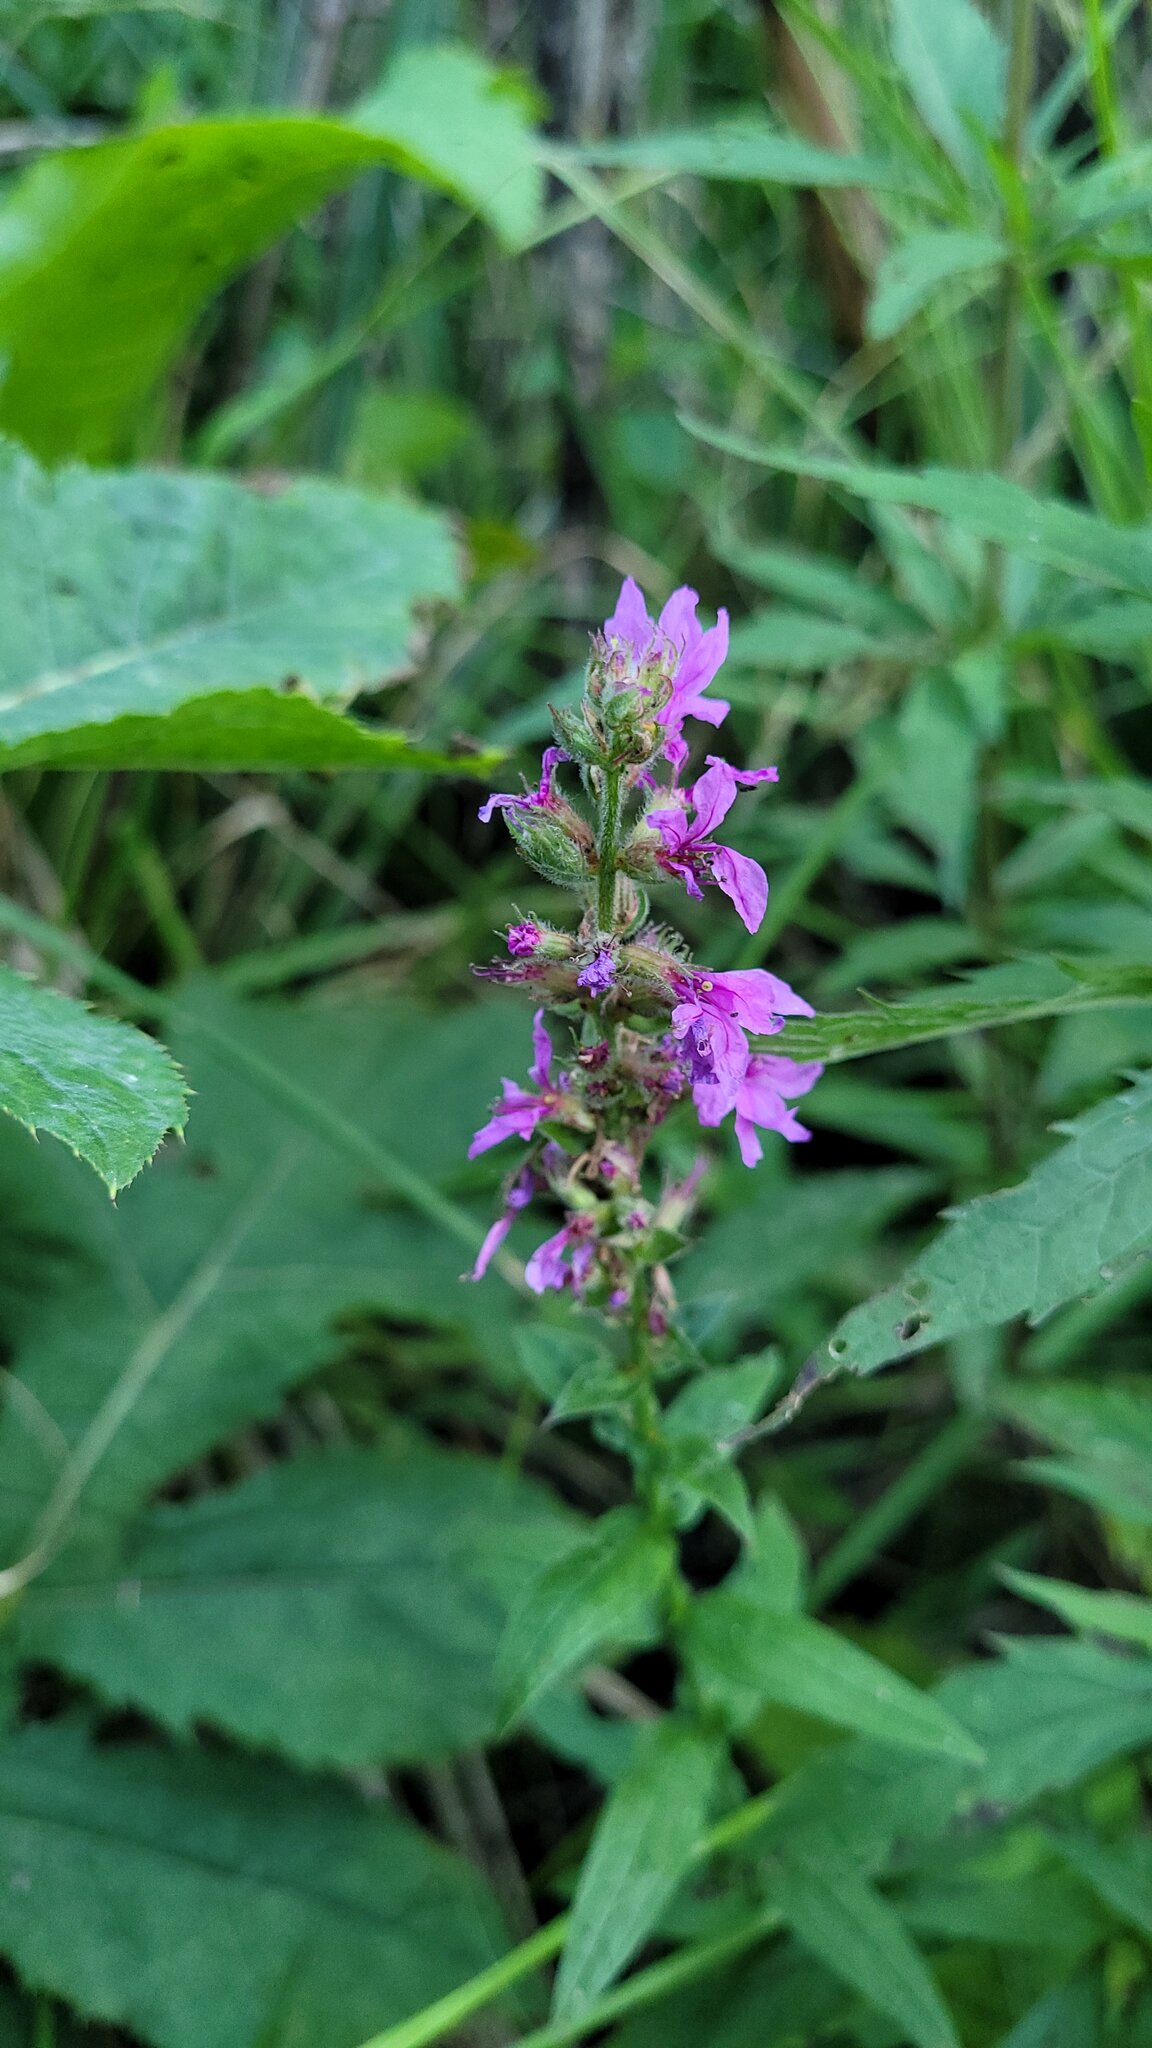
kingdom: Plantae
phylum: Tracheophyta
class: Magnoliopsida
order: Myrtales
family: Lythraceae
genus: Lythrum
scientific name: Lythrum salicaria
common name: Purple loosestrife
